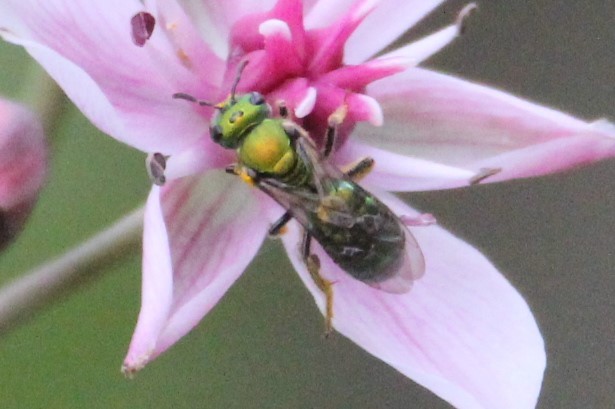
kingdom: Animalia
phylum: Arthropoda
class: Insecta
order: Hymenoptera
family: Halictidae
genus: Augochlora
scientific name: Augochlora pura
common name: Pure green sweat bee
